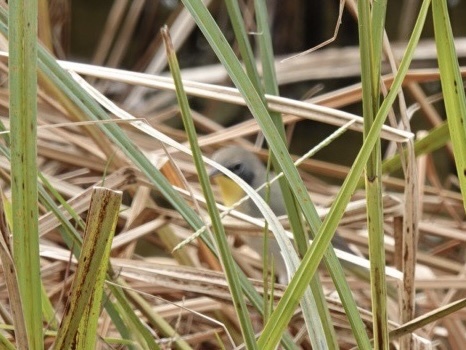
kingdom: Animalia
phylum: Chordata
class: Aves
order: Passeriformes
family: Parulidae
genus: Geothlypis
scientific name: Geothlypis trichas
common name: Common yellowthroat
